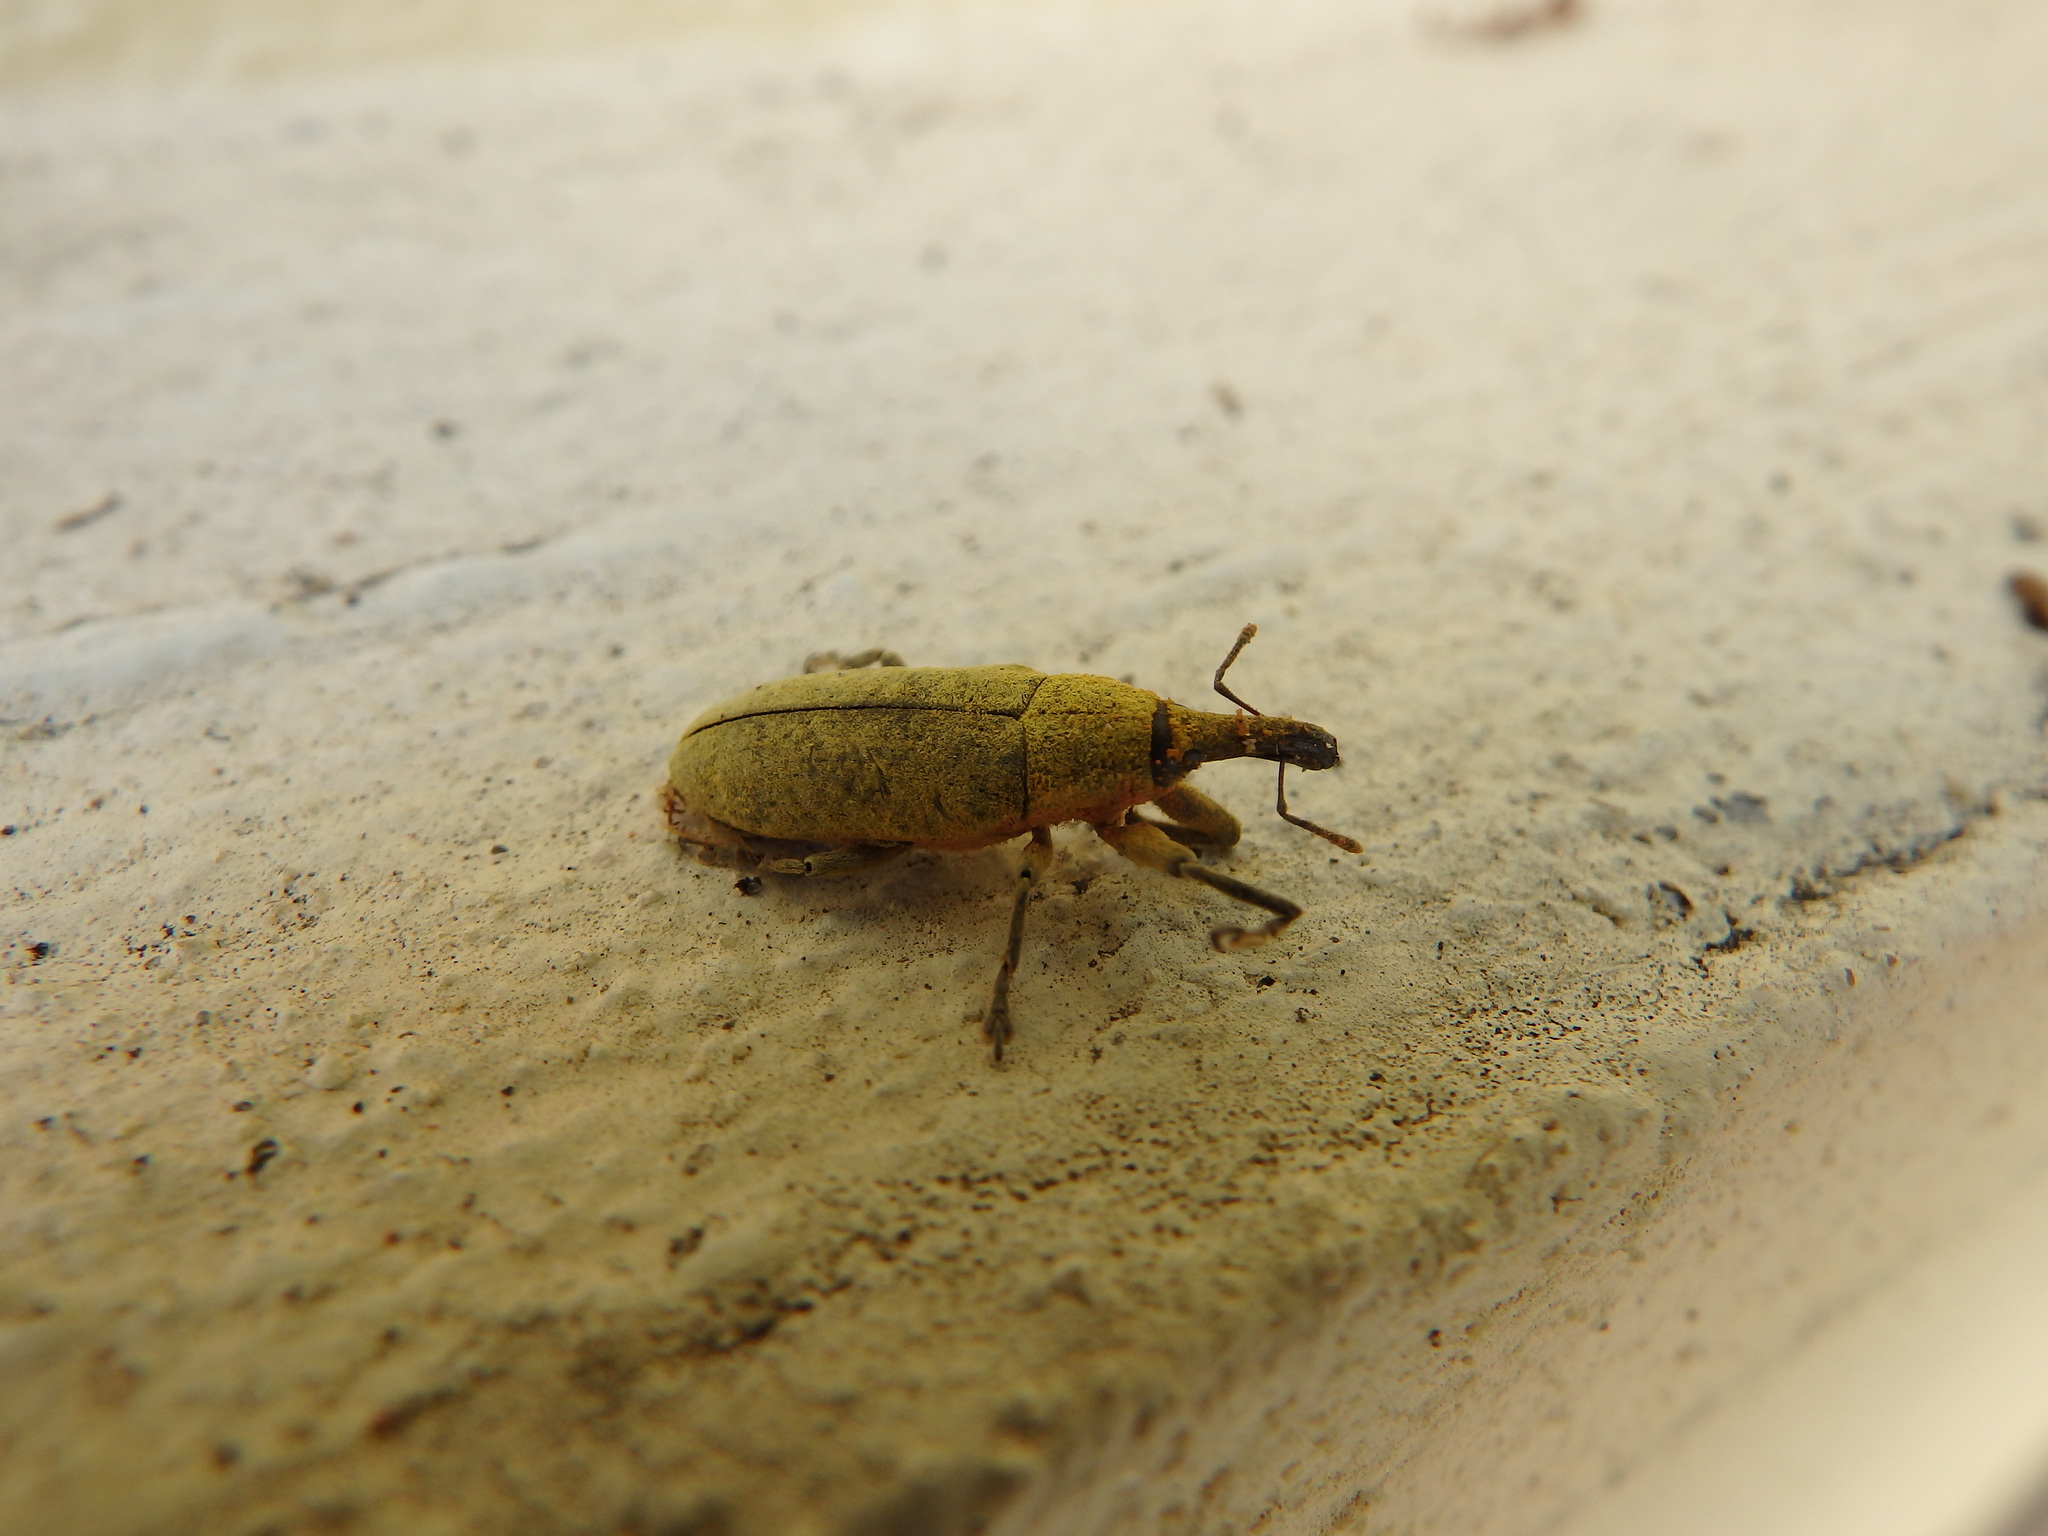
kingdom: Animalia
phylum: Arthropoda
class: Insecta
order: Coleoptera
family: Curculionidae
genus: Lixus
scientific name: Lixus pulverulentus
